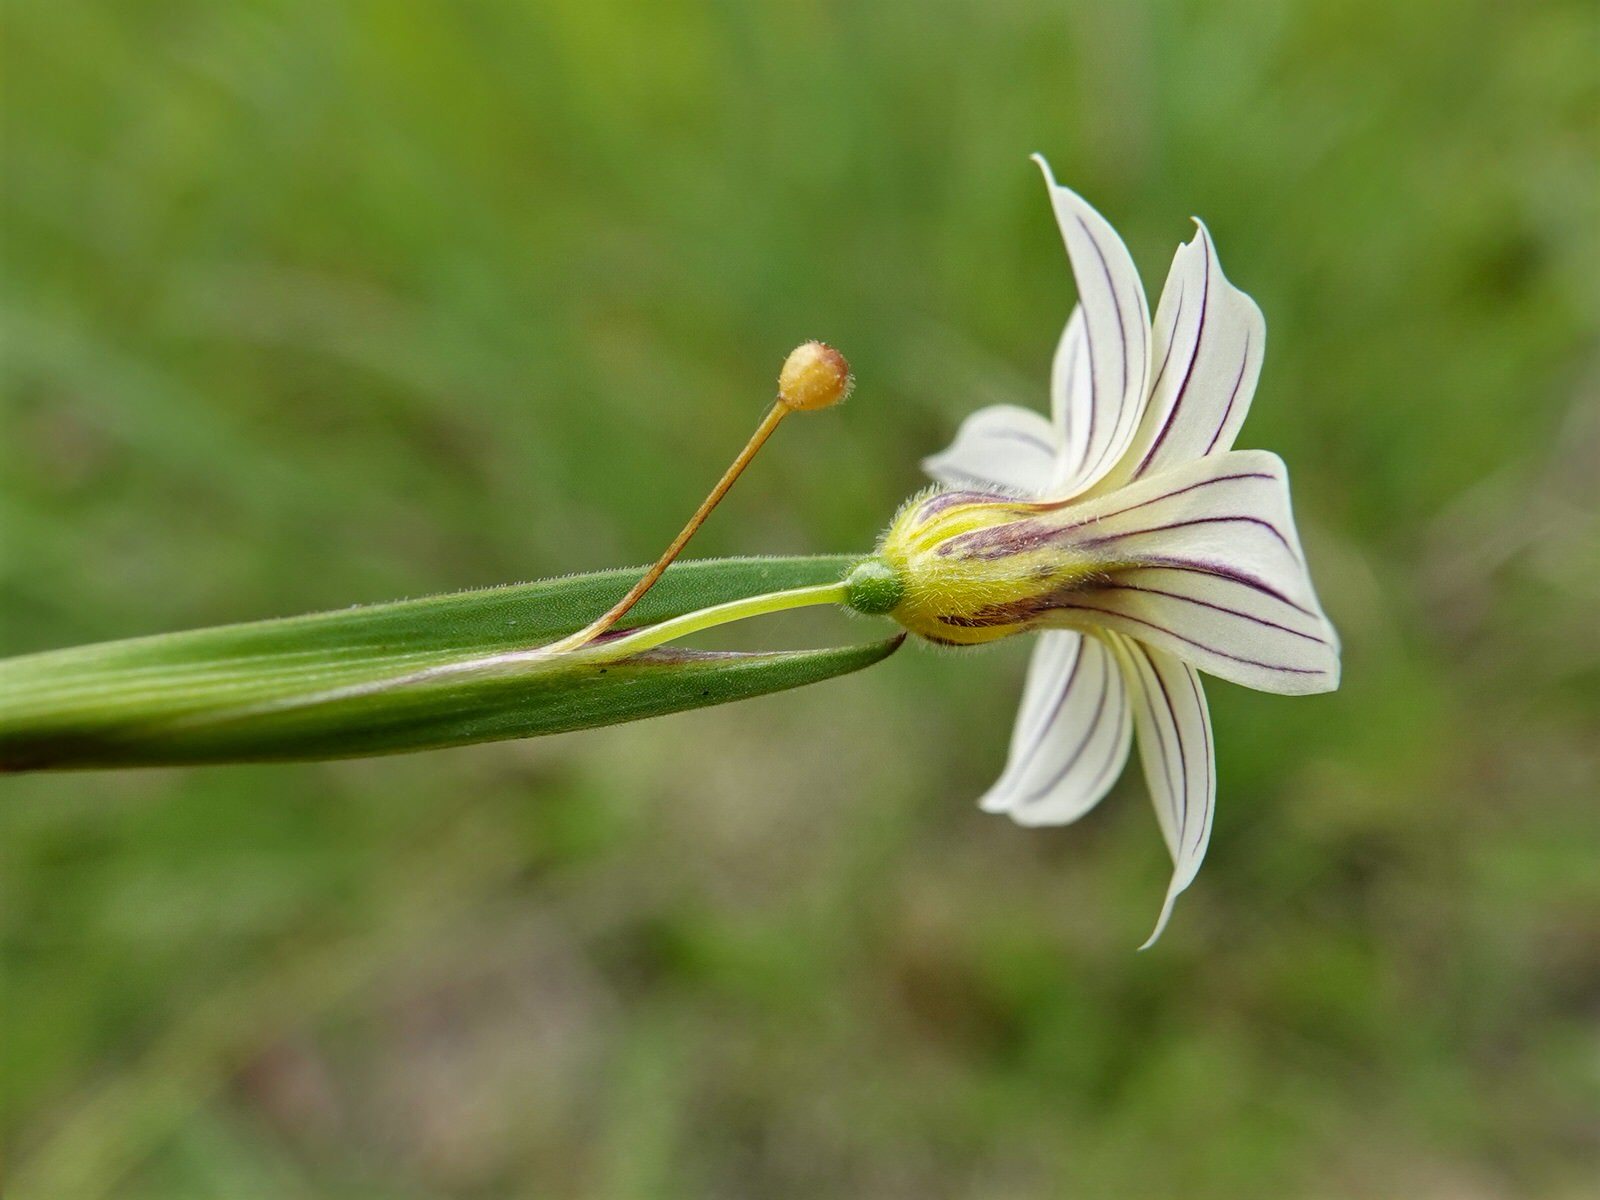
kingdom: Plantae
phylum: Tracheophyta
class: Liliopsida
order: Asparagales
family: Iridaceae
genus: Sisyrinchium
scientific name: Sisyrinchium micranthum
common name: Bermuda pigroot
